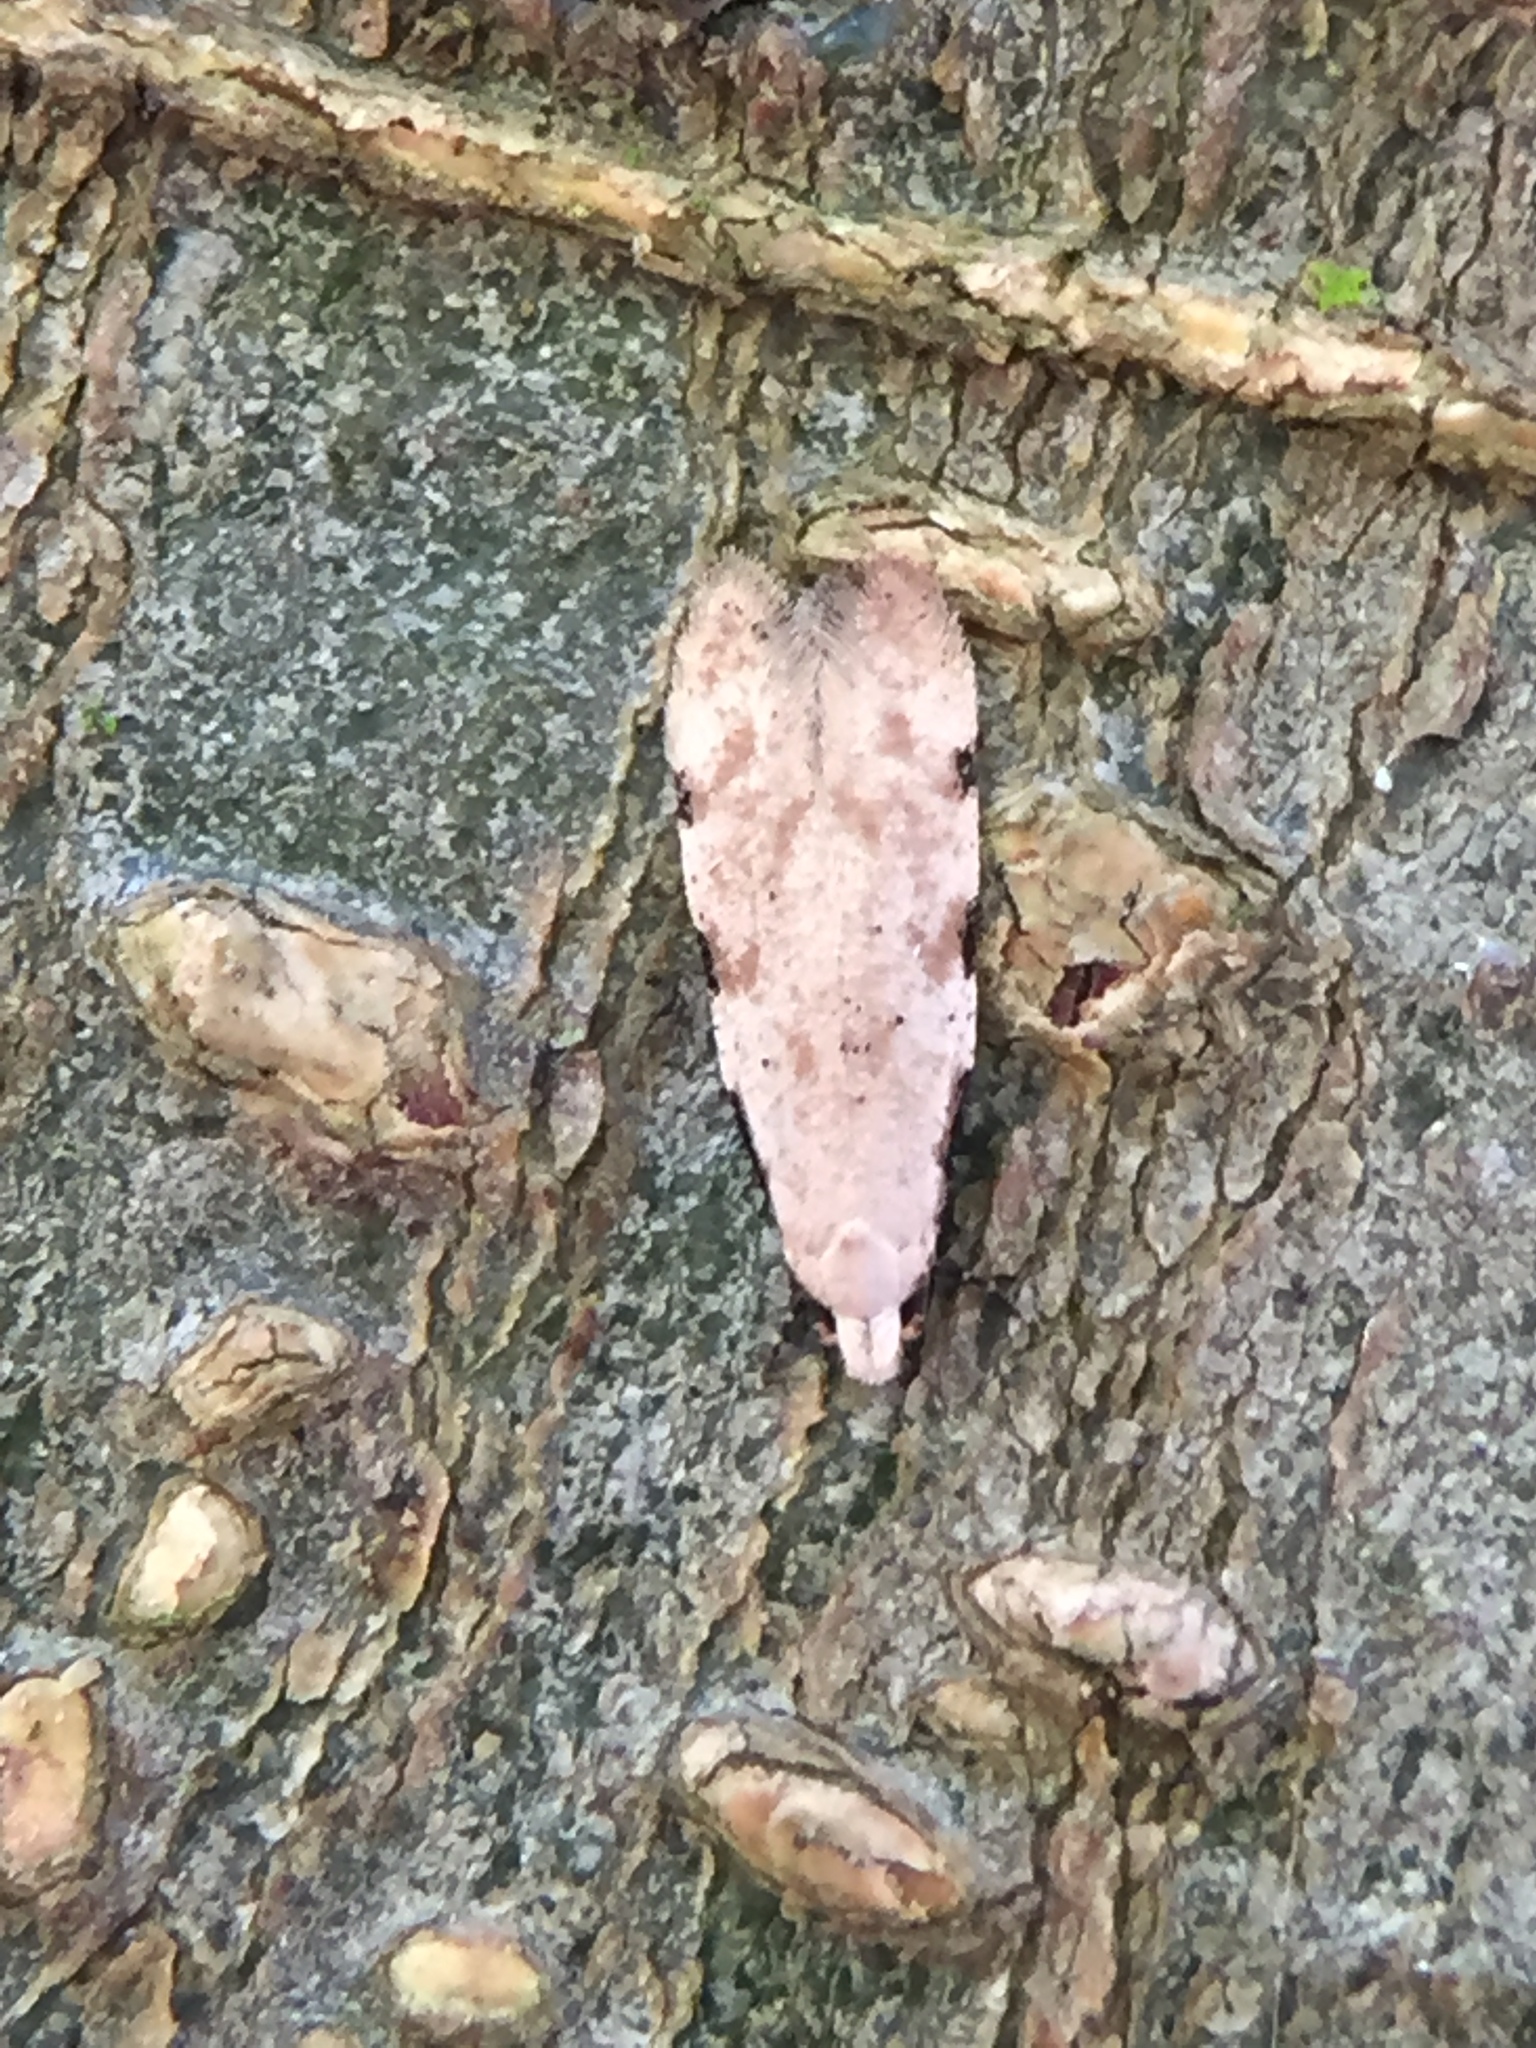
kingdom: Animalia
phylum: Arthropoda
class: Insecta
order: Lepidoptera
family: Tineidae
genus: Endophthora
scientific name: Endophthora omogramma
